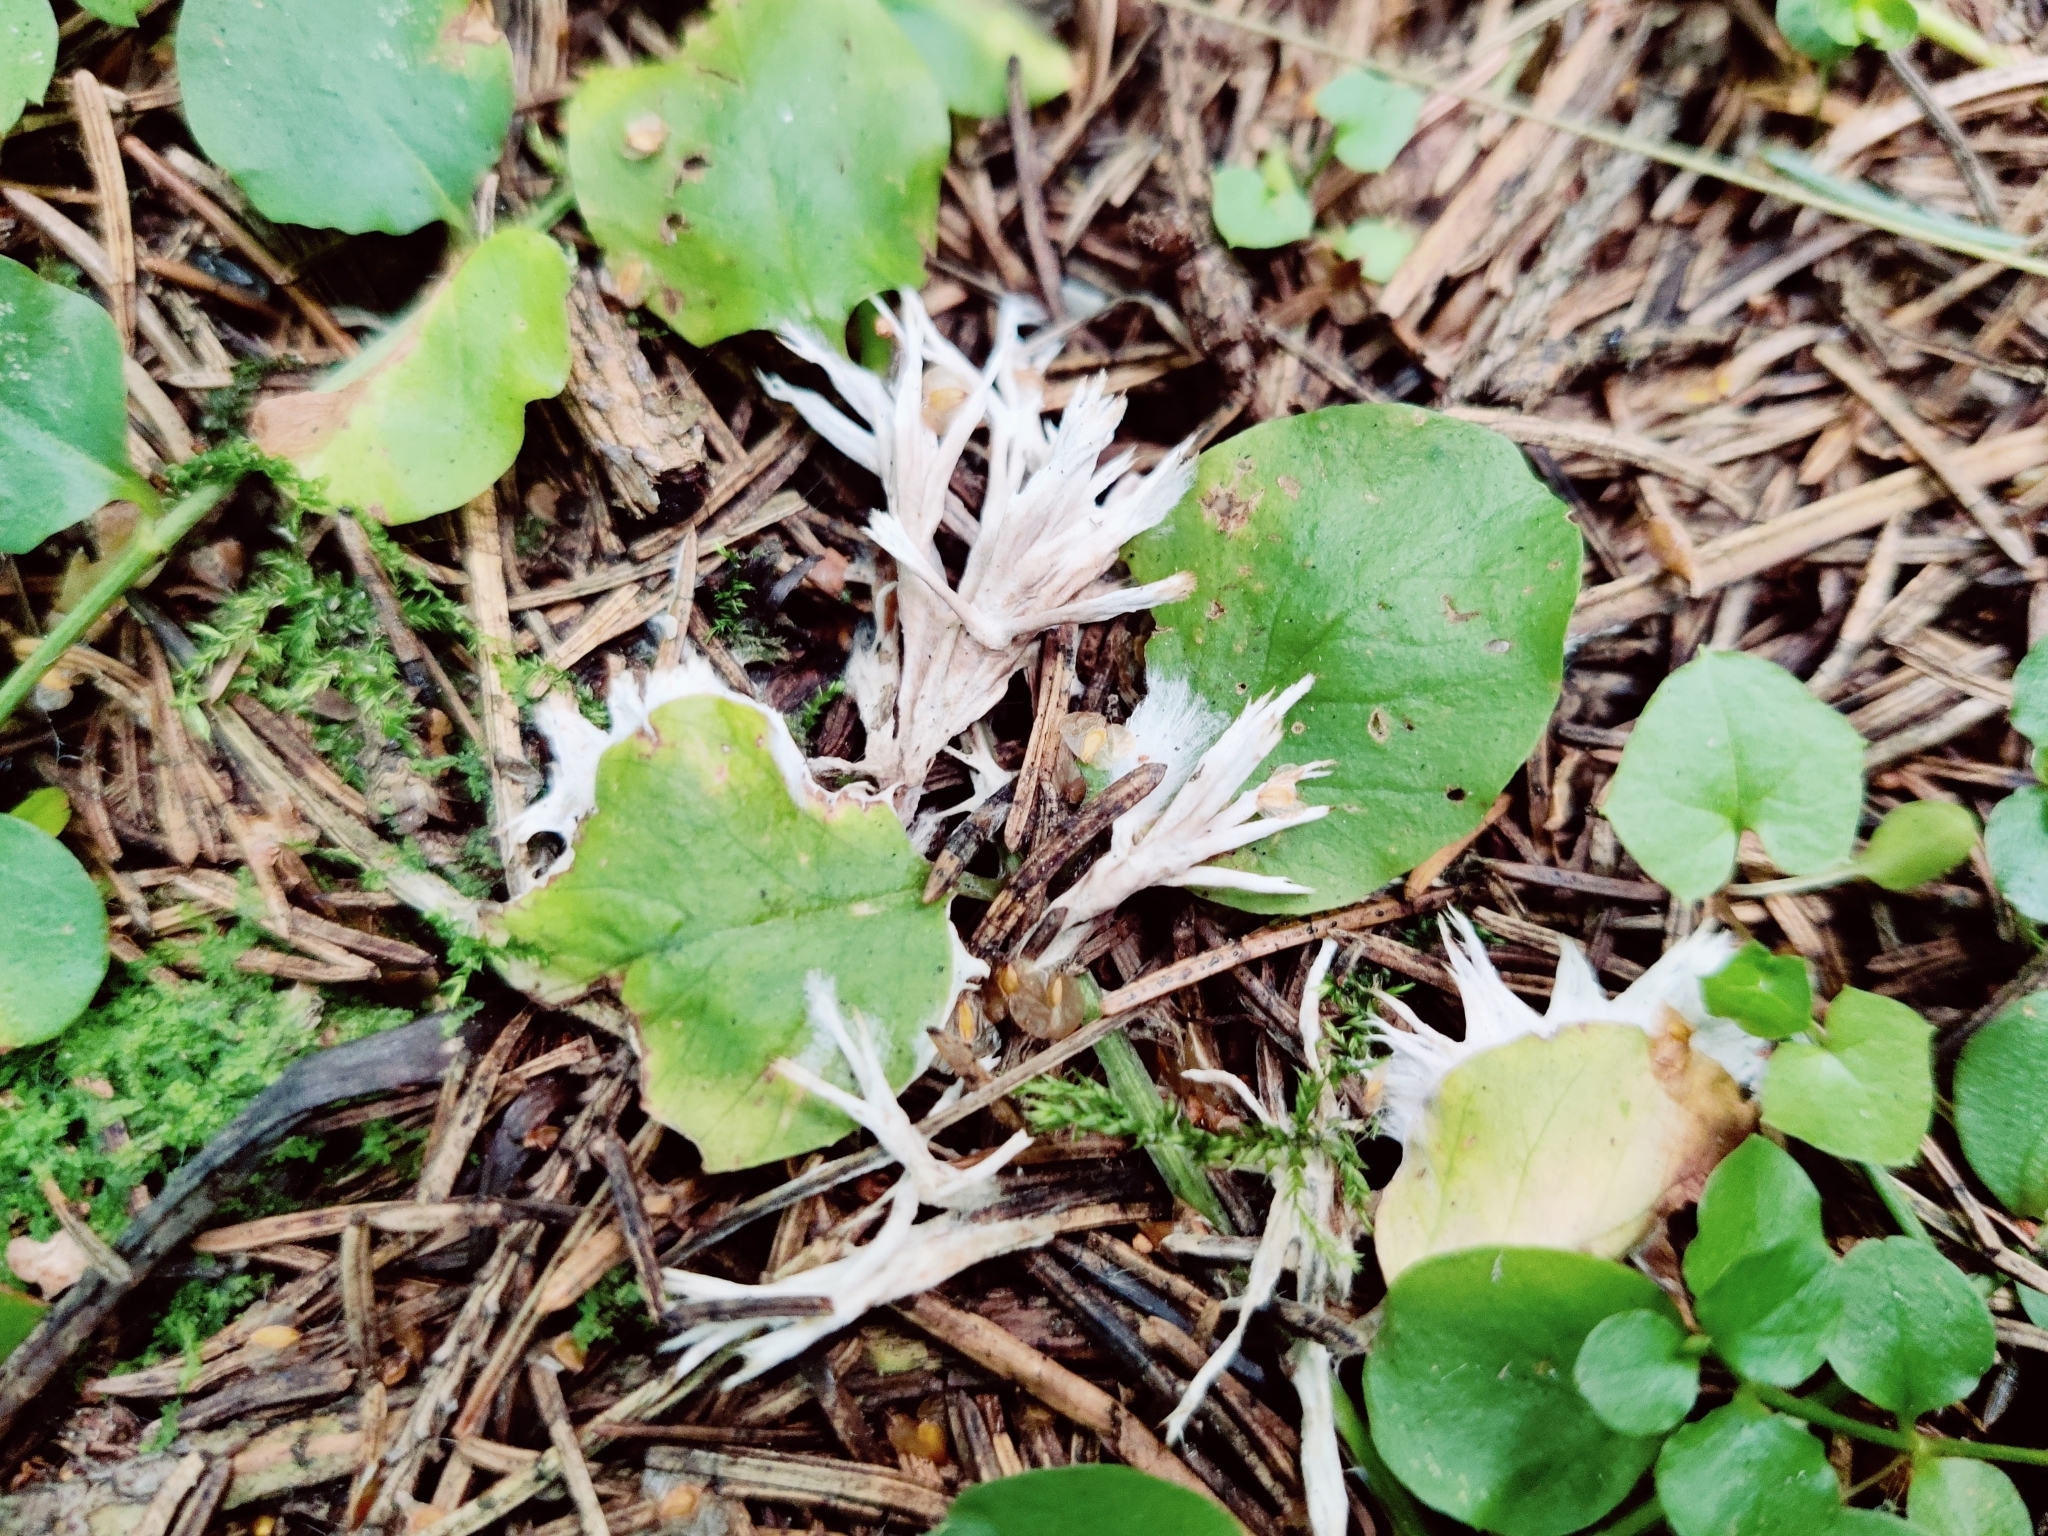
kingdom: Fungi
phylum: Basidiomycota
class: Agaricomycetes
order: Thelephorales
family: Thelephoraceae
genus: Thelephora
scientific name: Thelephora penicillata
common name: Urchin earthfan
